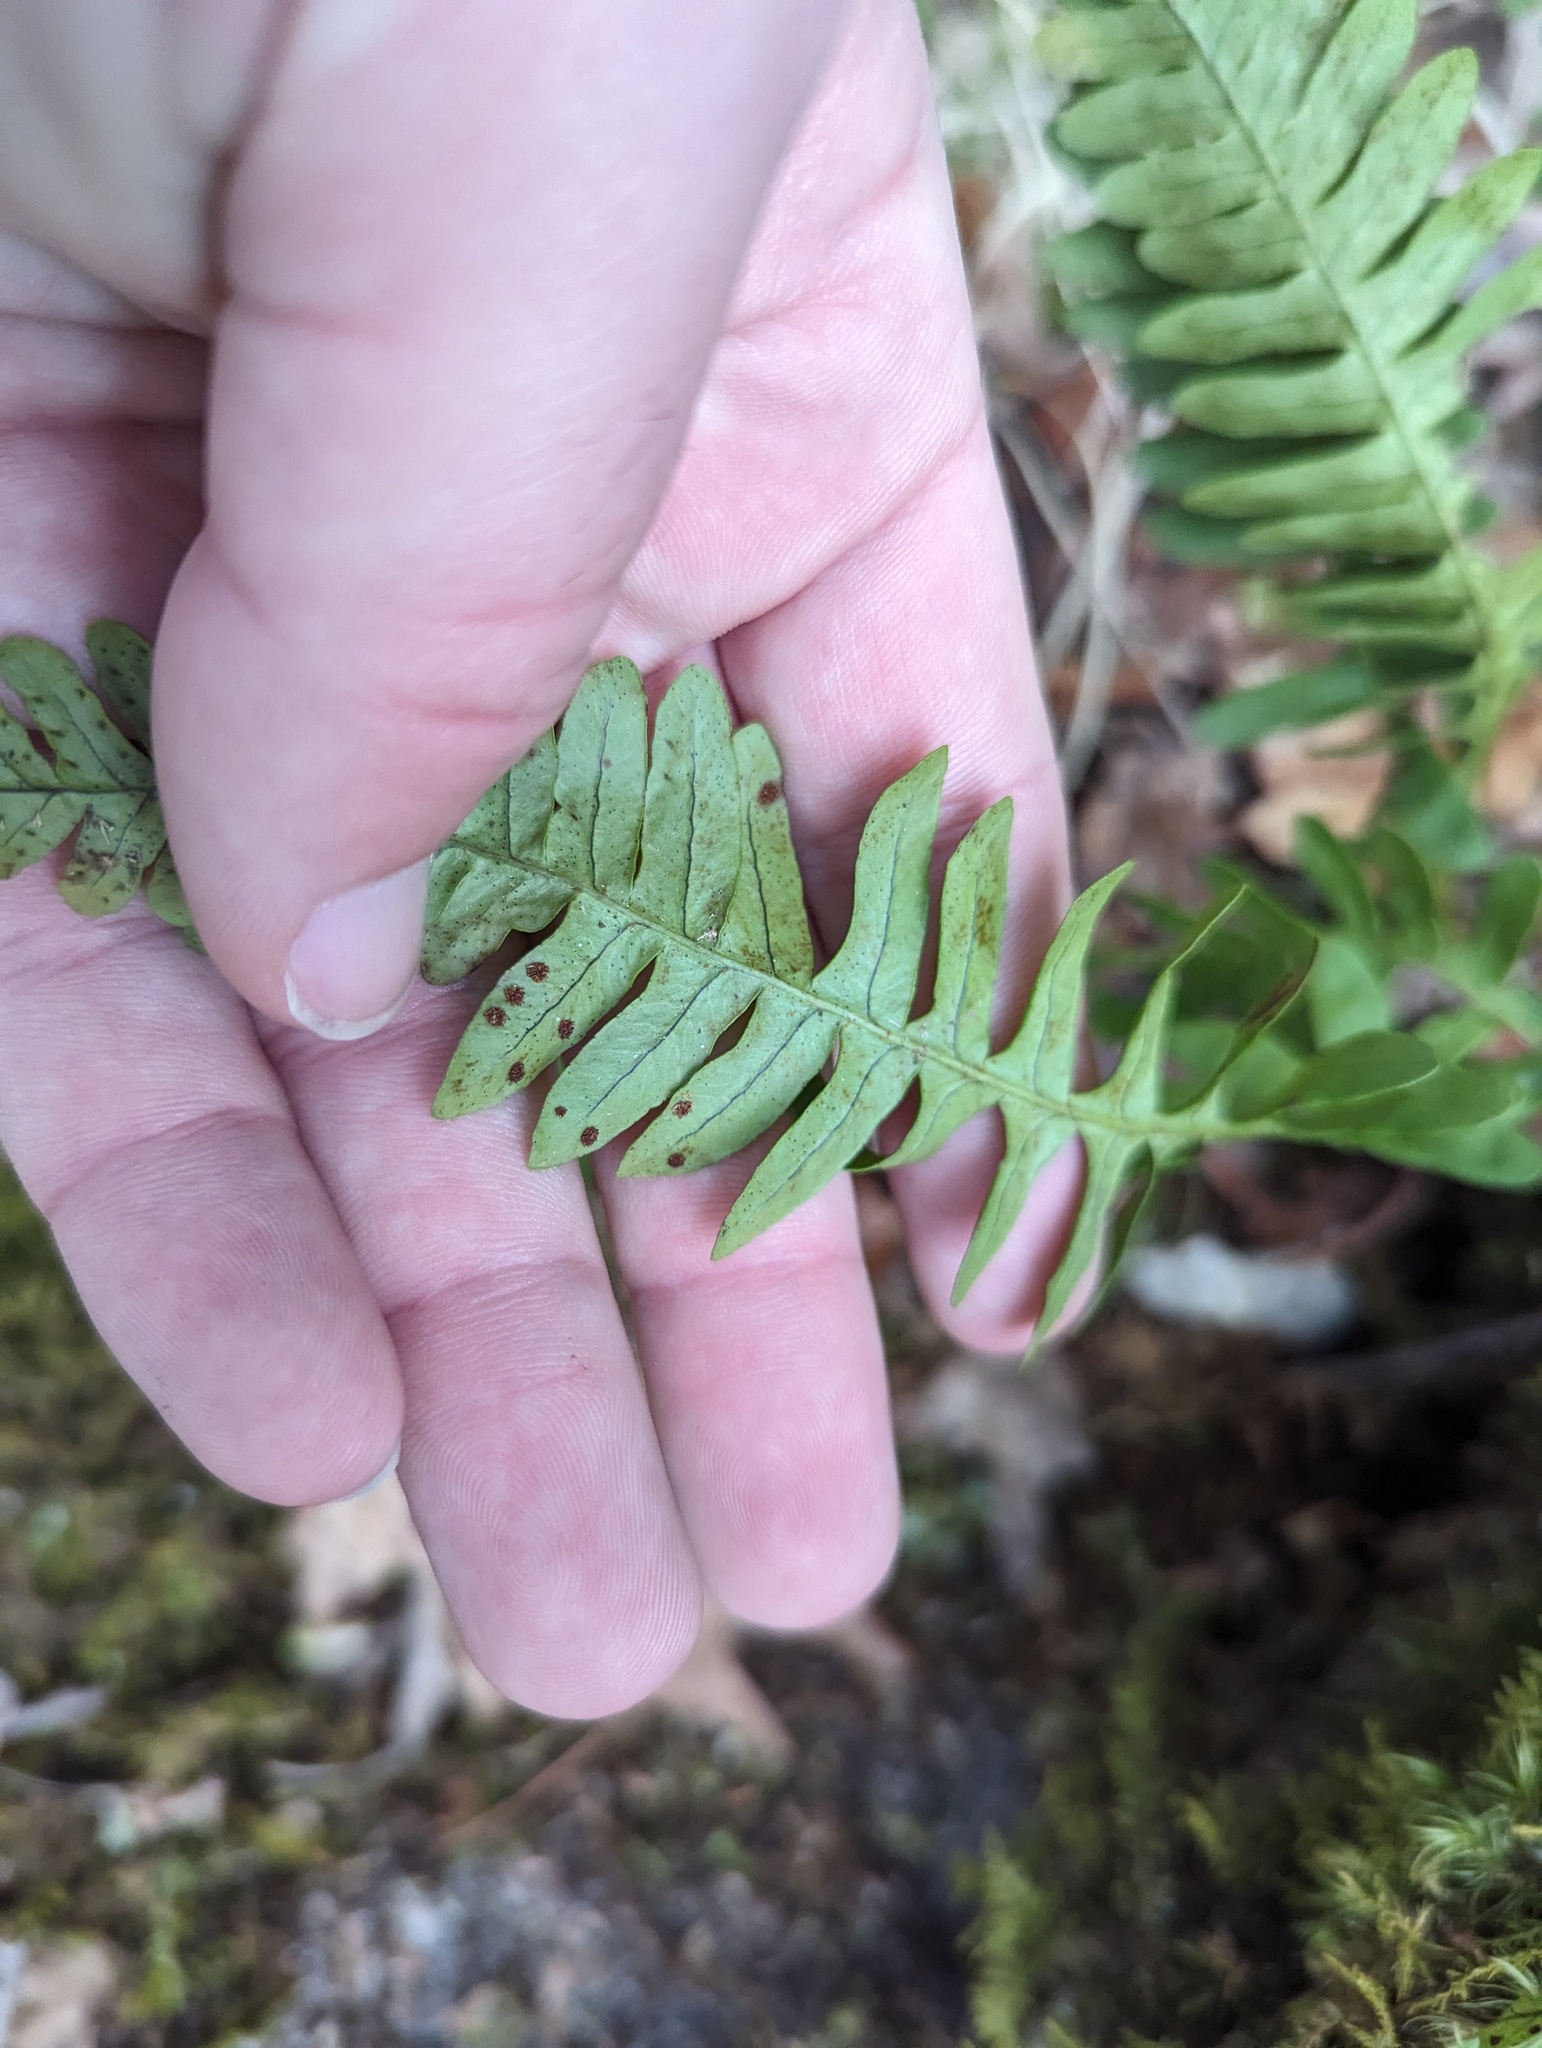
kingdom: Plantae
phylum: Tracheophyta
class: Polypodiopsida
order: Polypodiales
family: Polypodiaceae
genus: Polypodium
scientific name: Polypodium virginianum
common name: American wall fern
